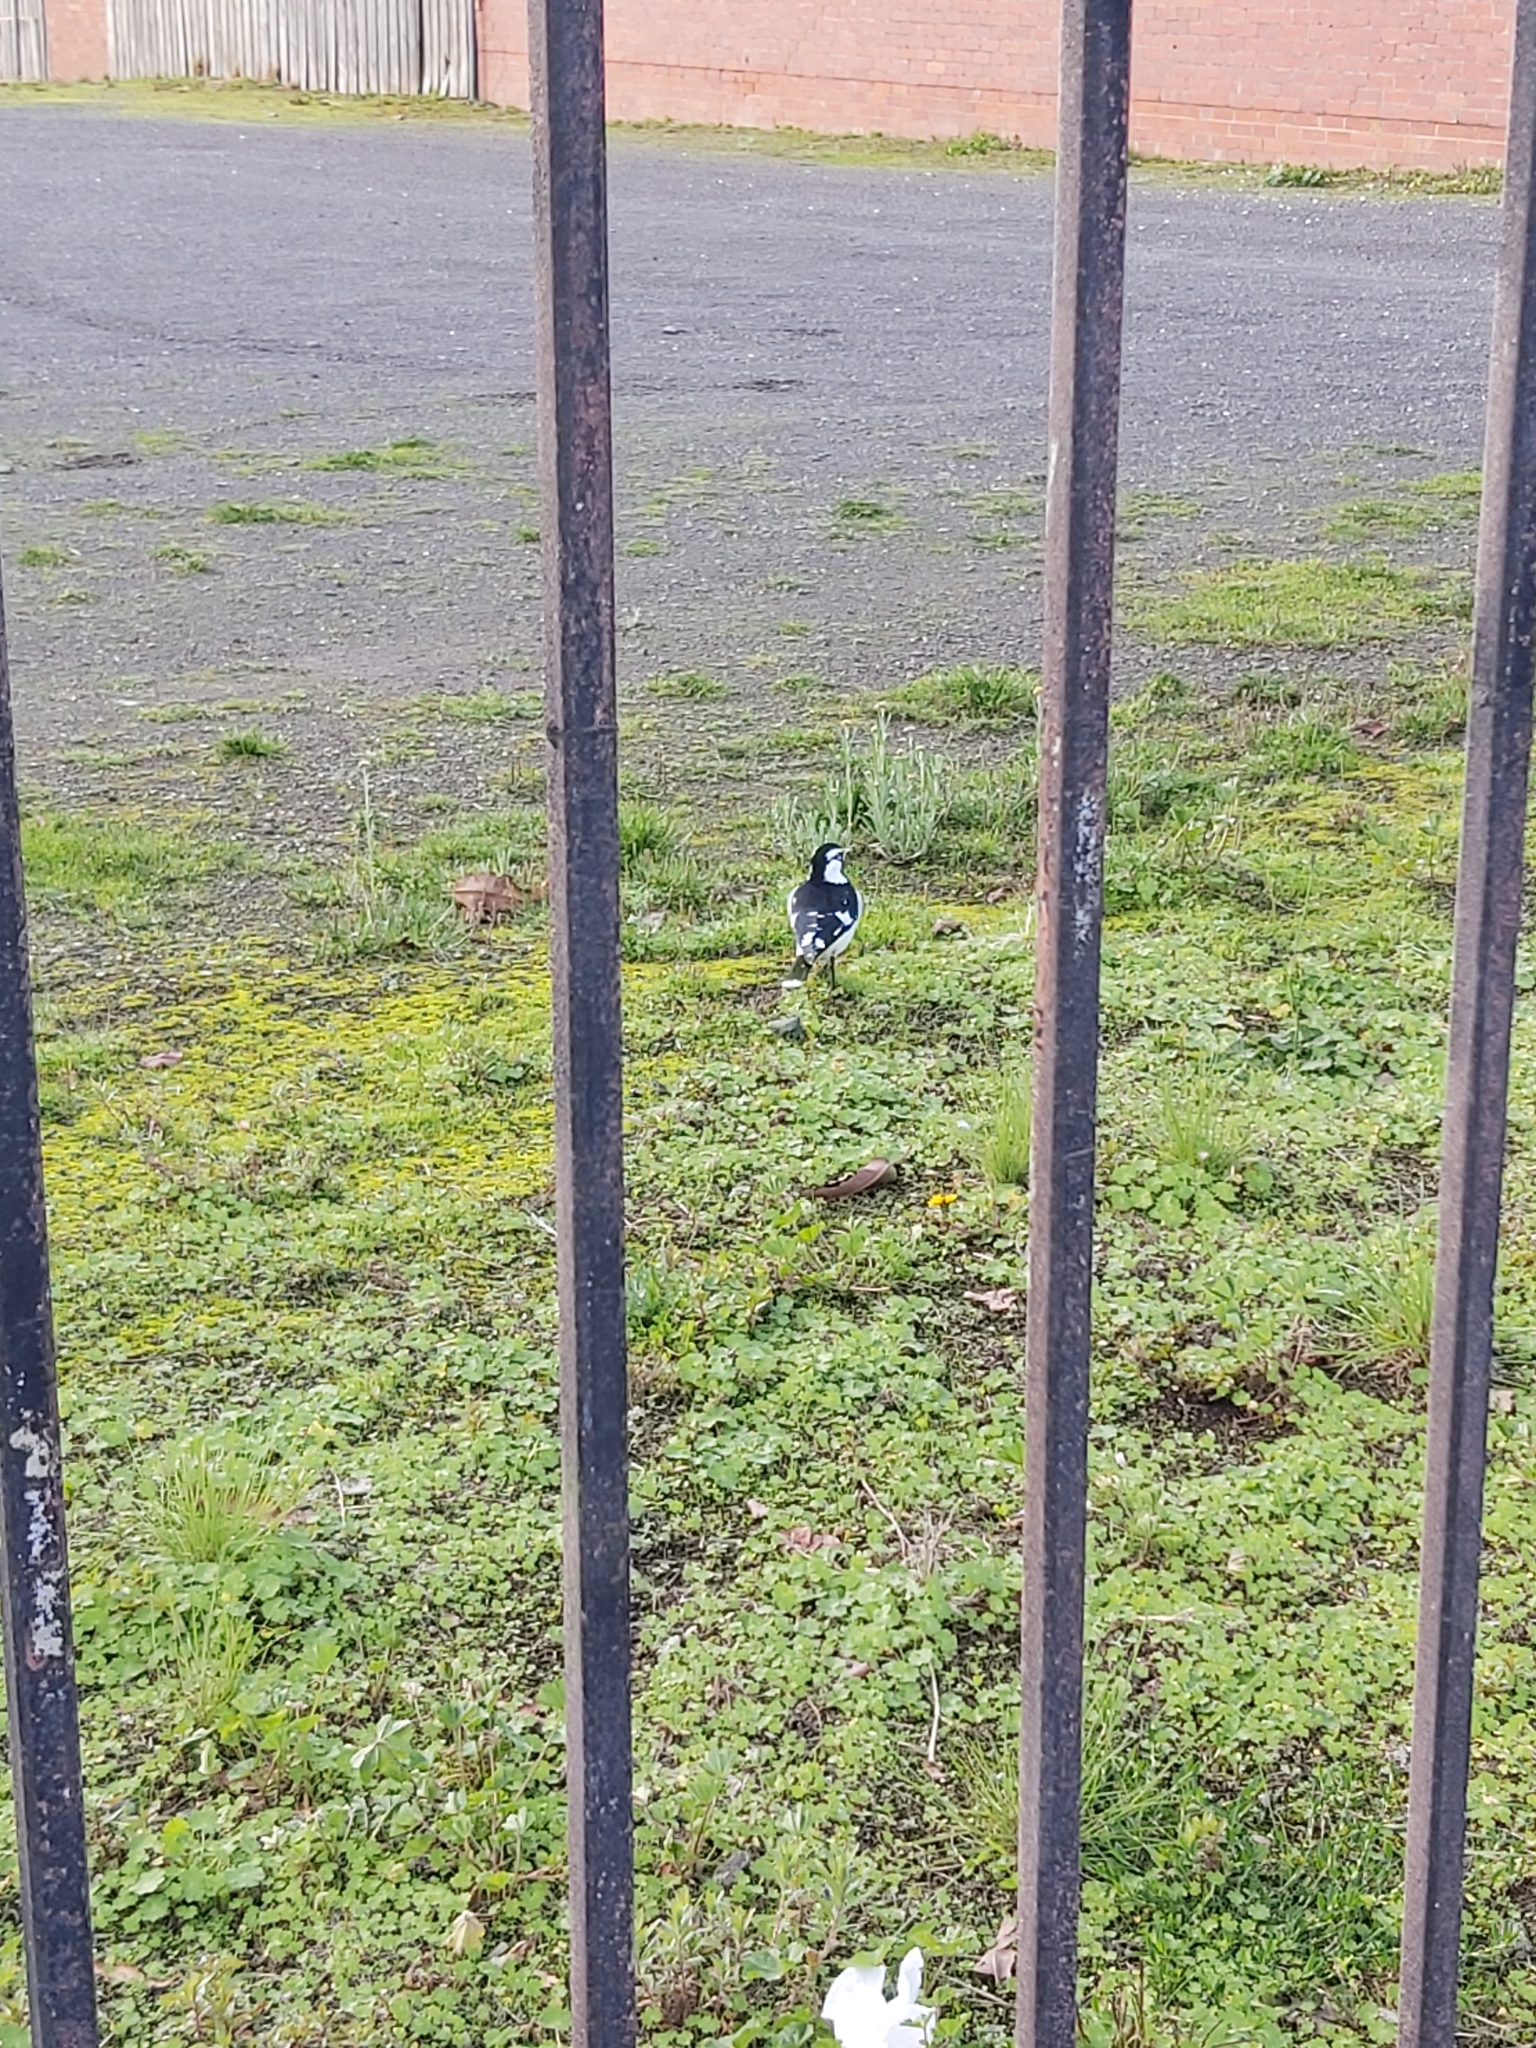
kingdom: Animalia
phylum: Chordata
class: Aves
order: Passeriformes
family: Monarchidae
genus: Grallina
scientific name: Grallina cyanoleuca
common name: Magpie-lark
